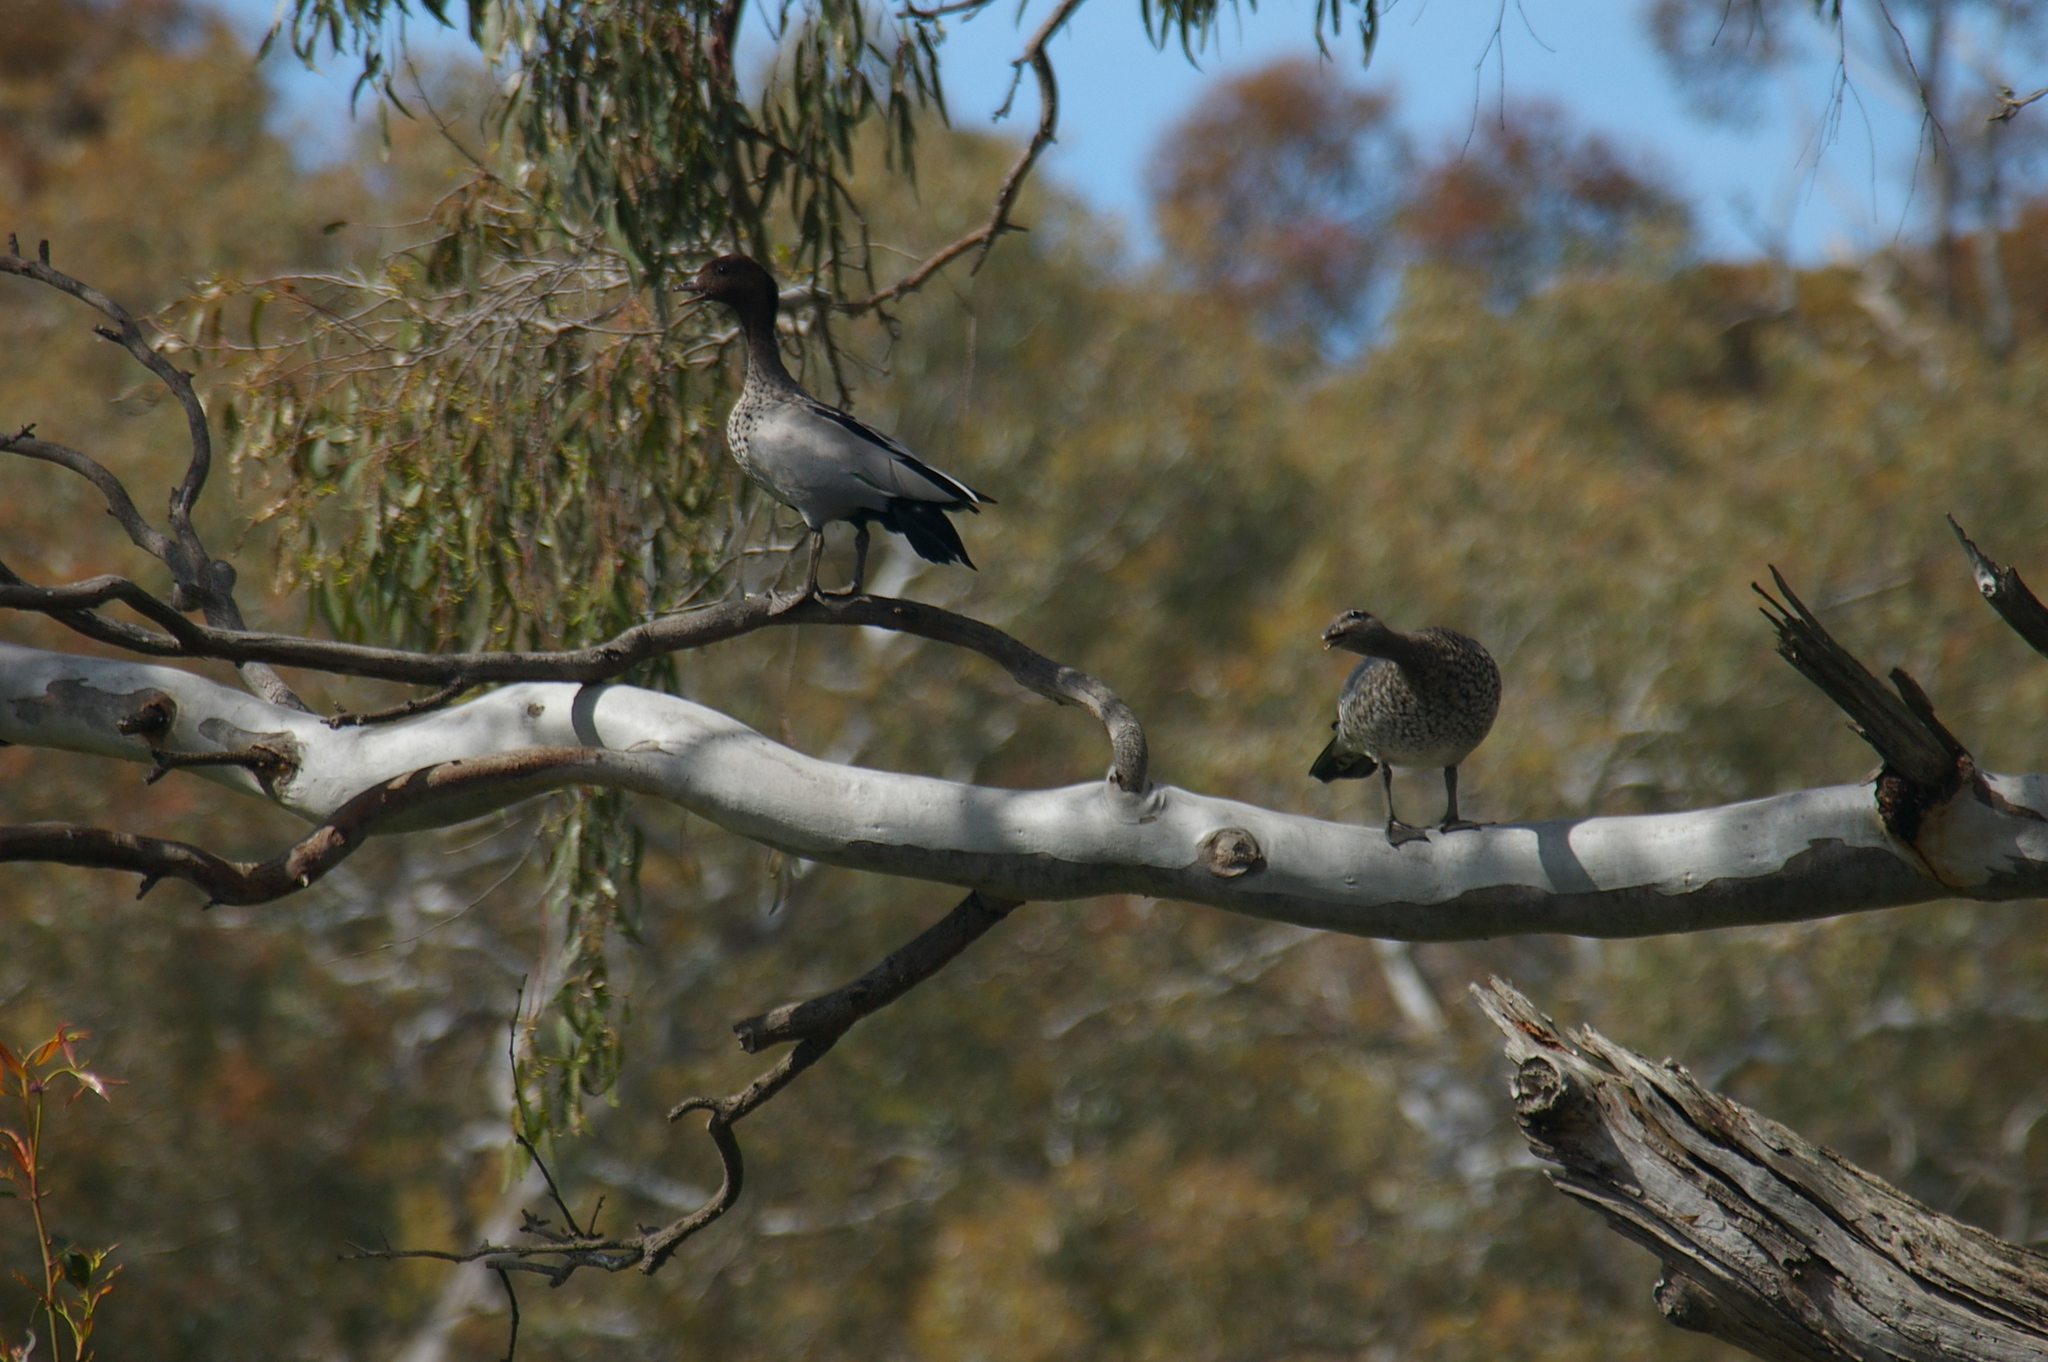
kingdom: Animalia
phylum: Chordata
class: Aves
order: Anseriformes
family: Anatidae
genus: Chenonetta
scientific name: Chenonetta jubata
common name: Maned duck
